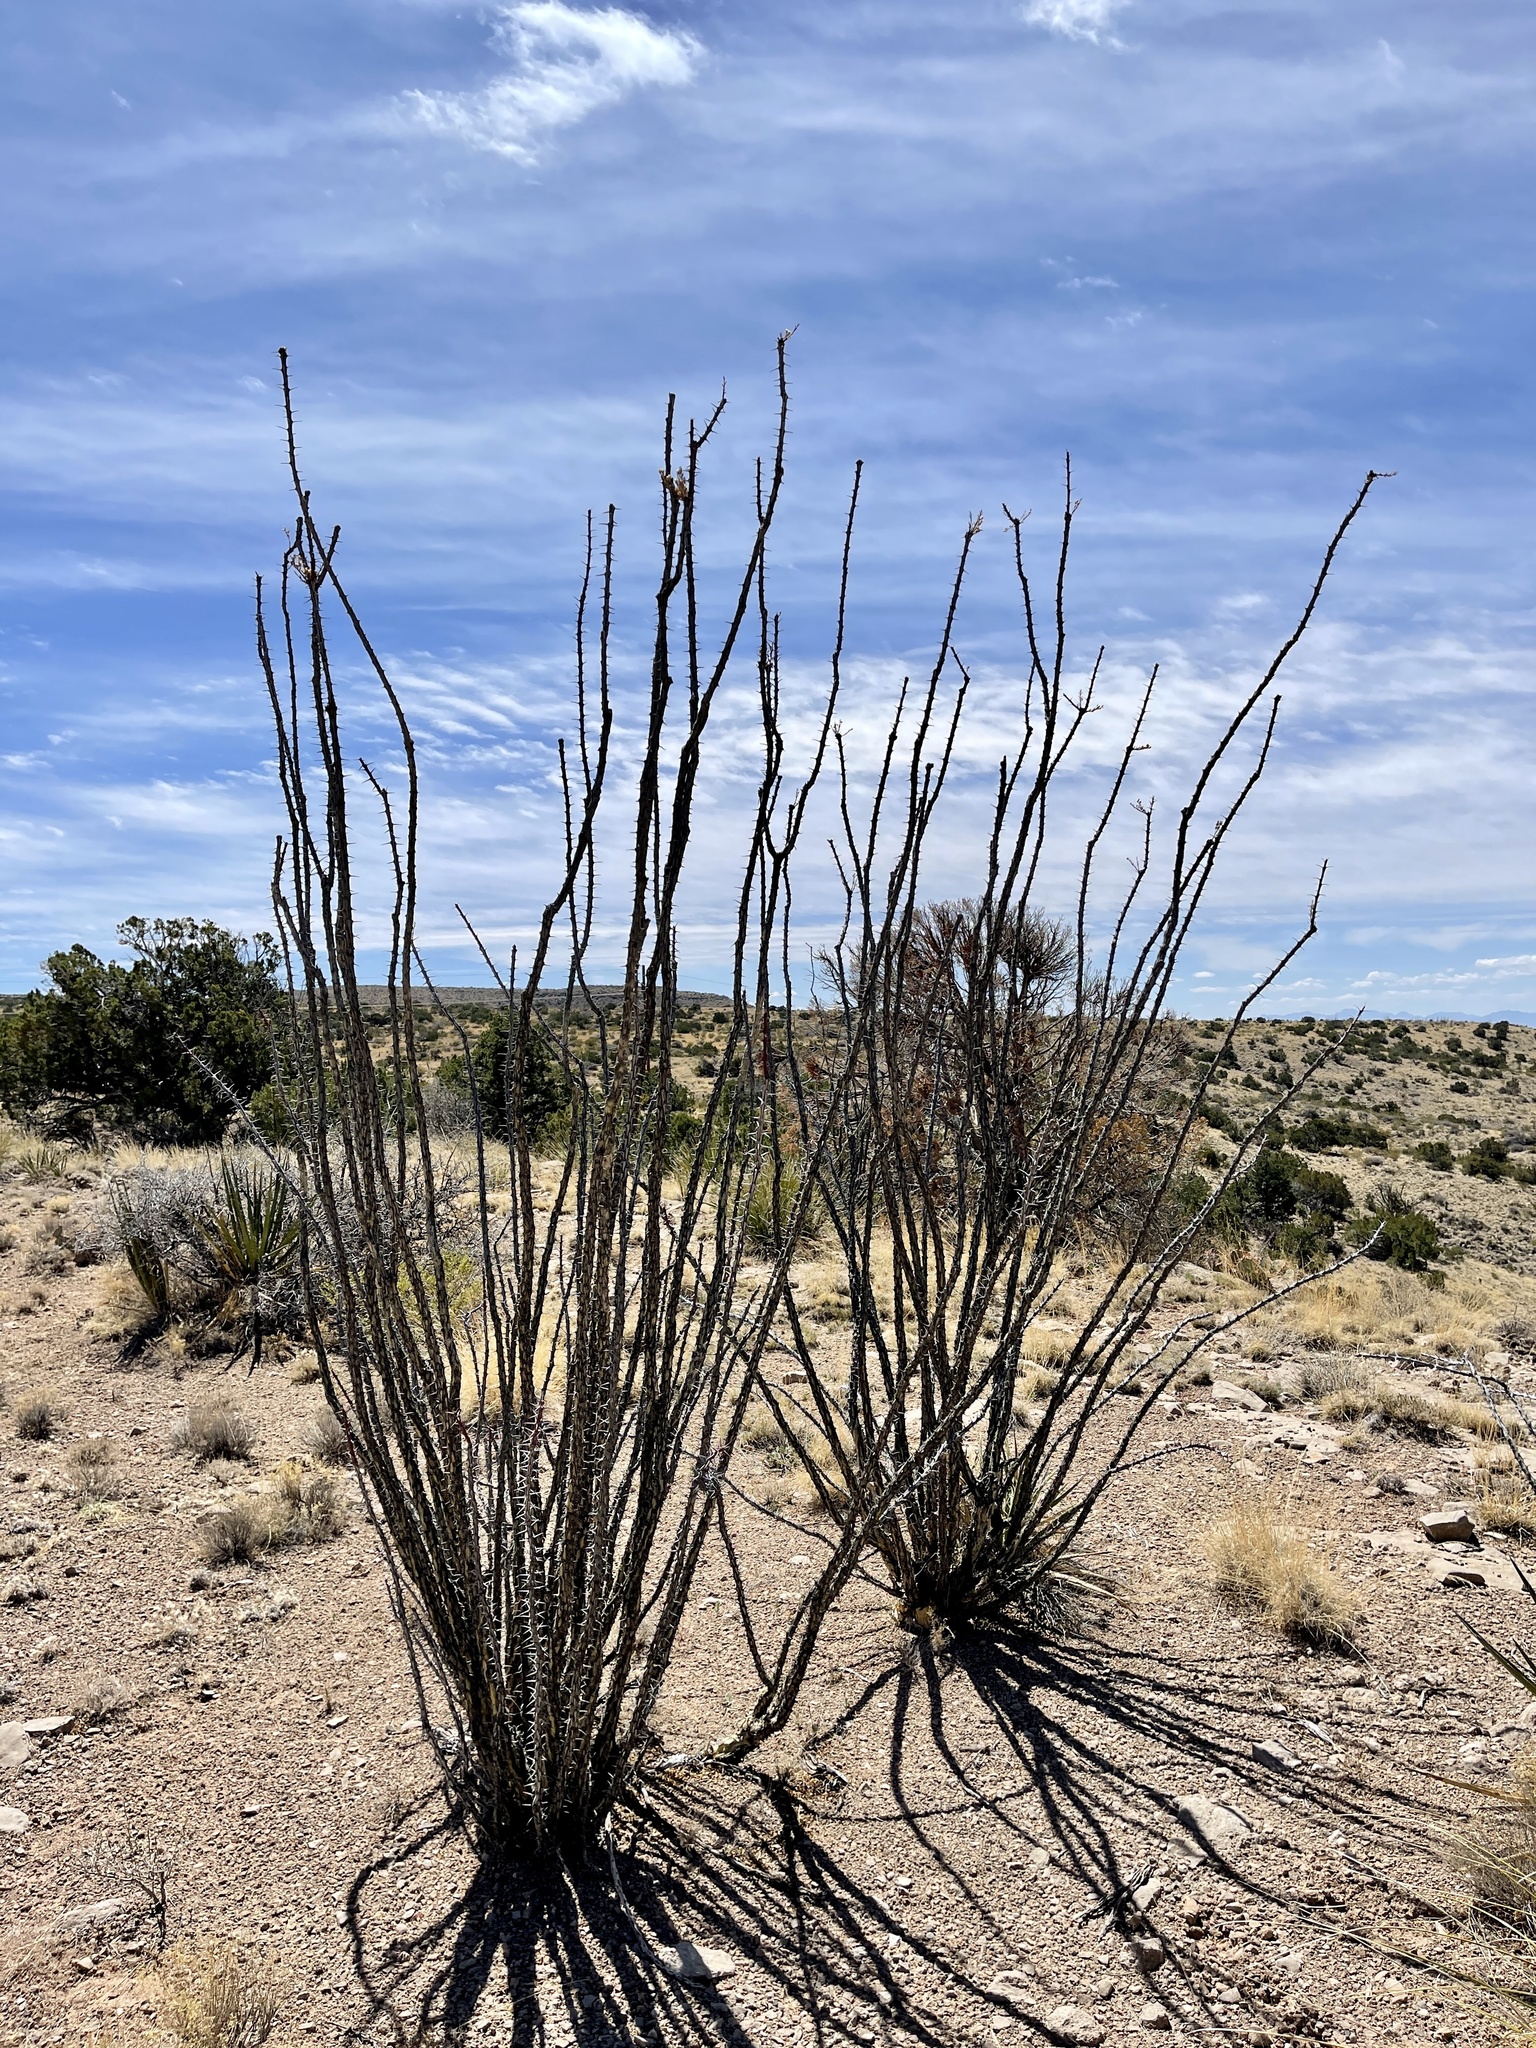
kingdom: Plantae
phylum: Tracheophyta
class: Magnoliopsida
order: Ericales
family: Fouquieriaceae
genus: Fouquieria
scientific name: Fouquieria splendens
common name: Vine-cactus
